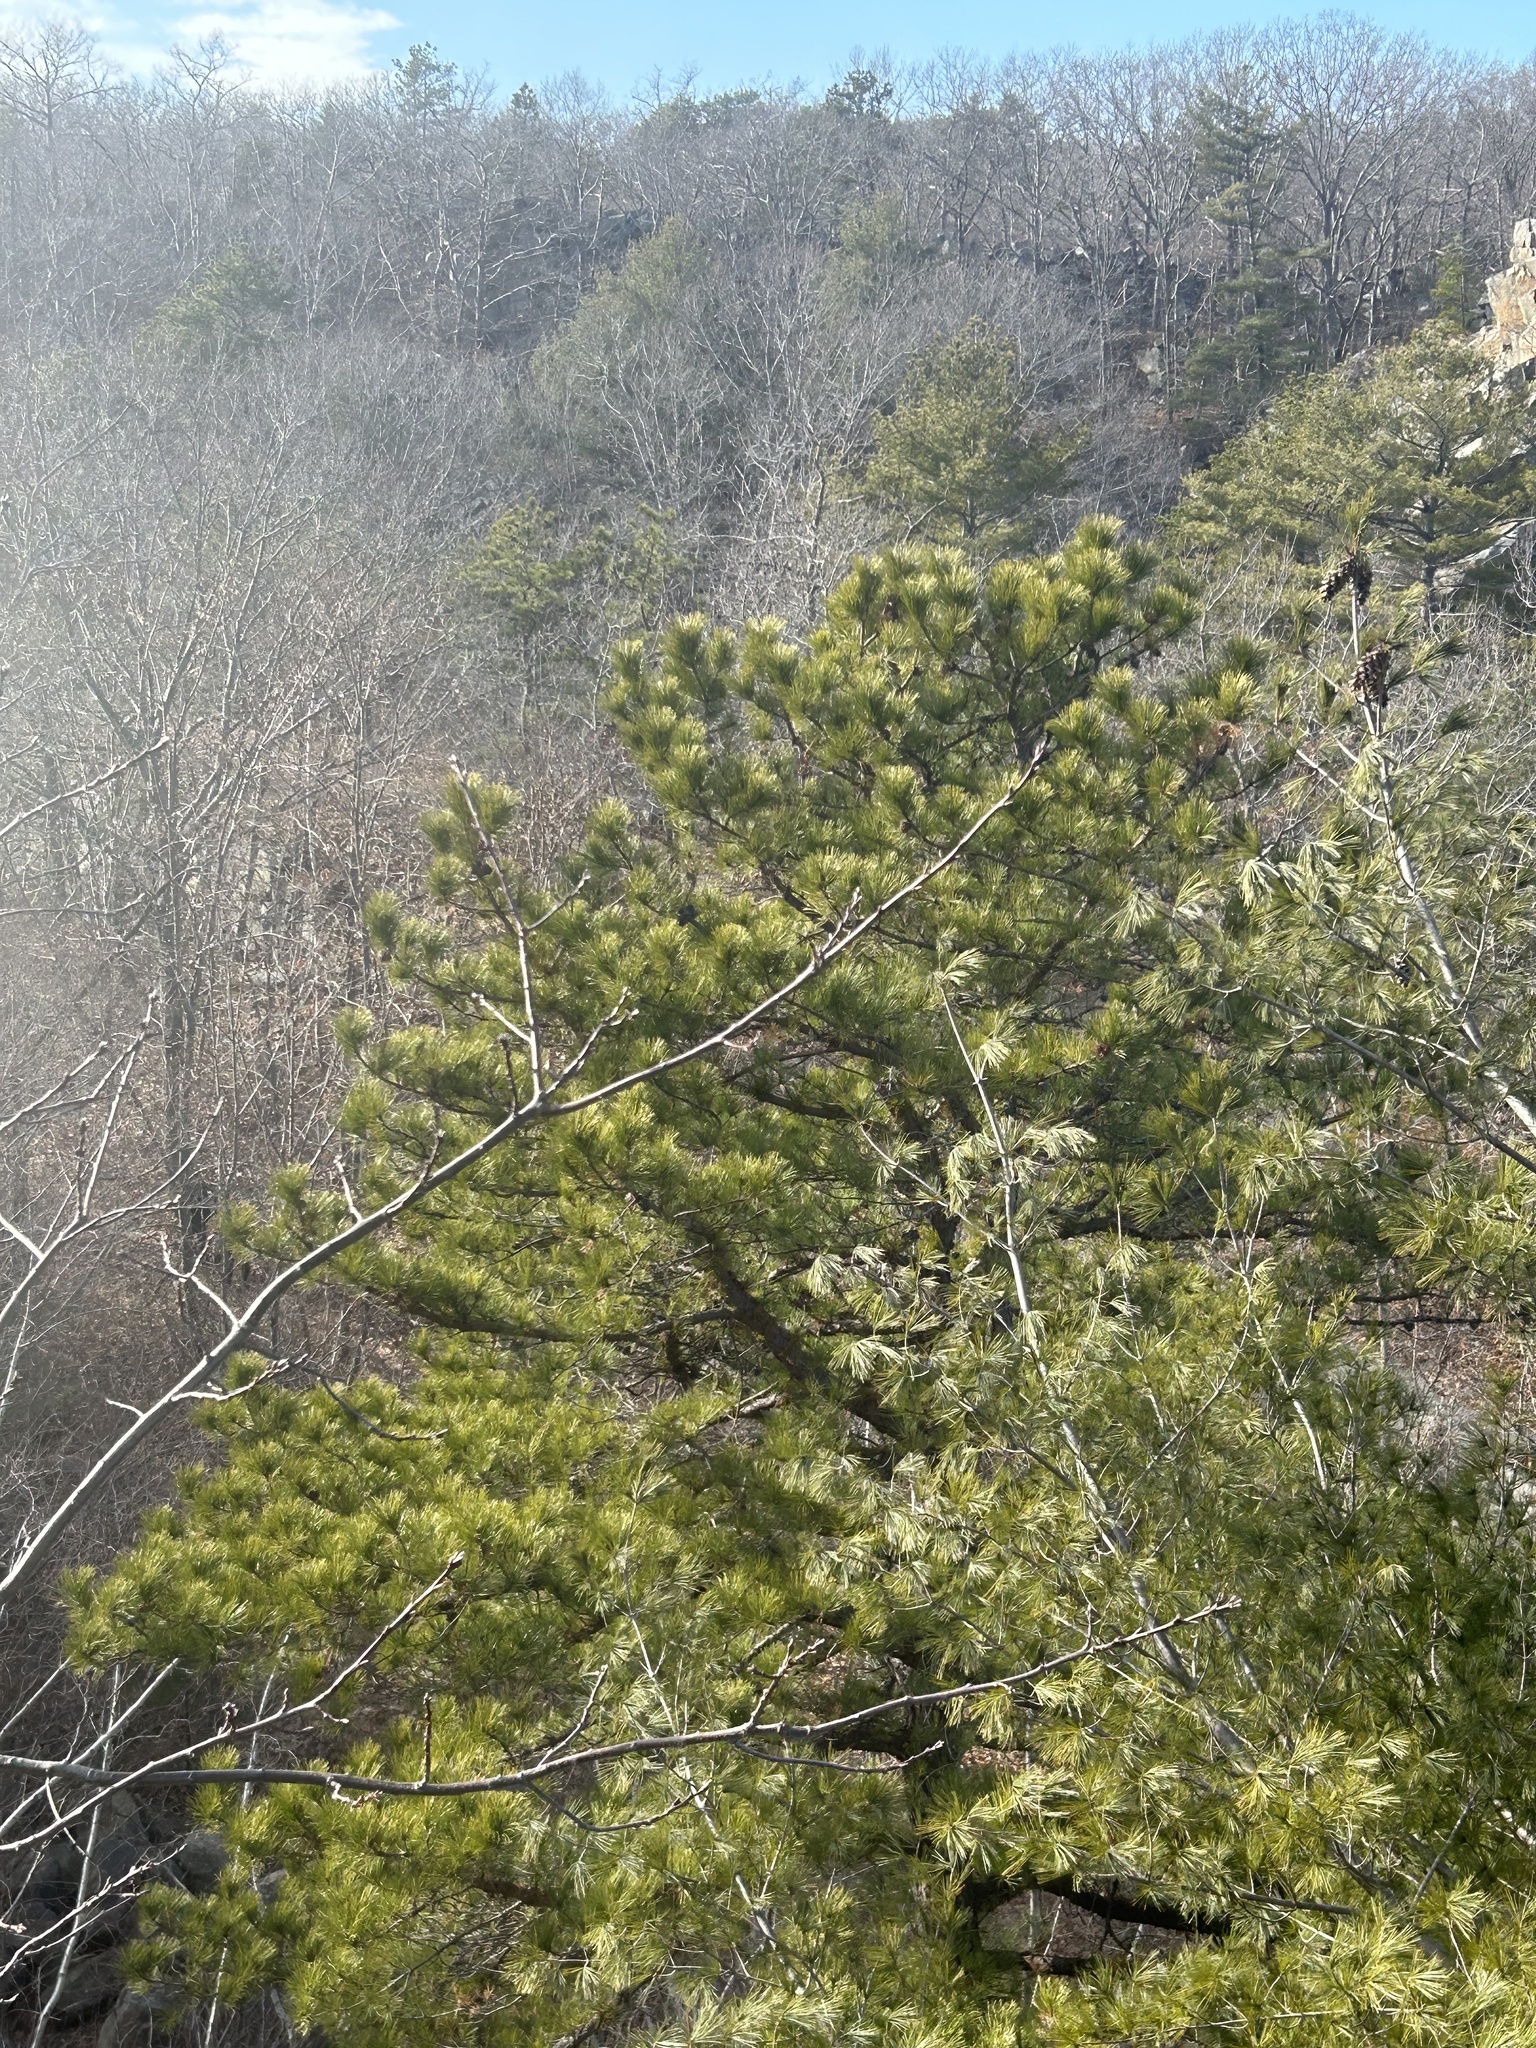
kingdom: Plantae
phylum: Tracheophyta
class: Pinopsida
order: Pinales
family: Pinaceae
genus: Pinus
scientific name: Pinus rigida
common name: Pitch pine
